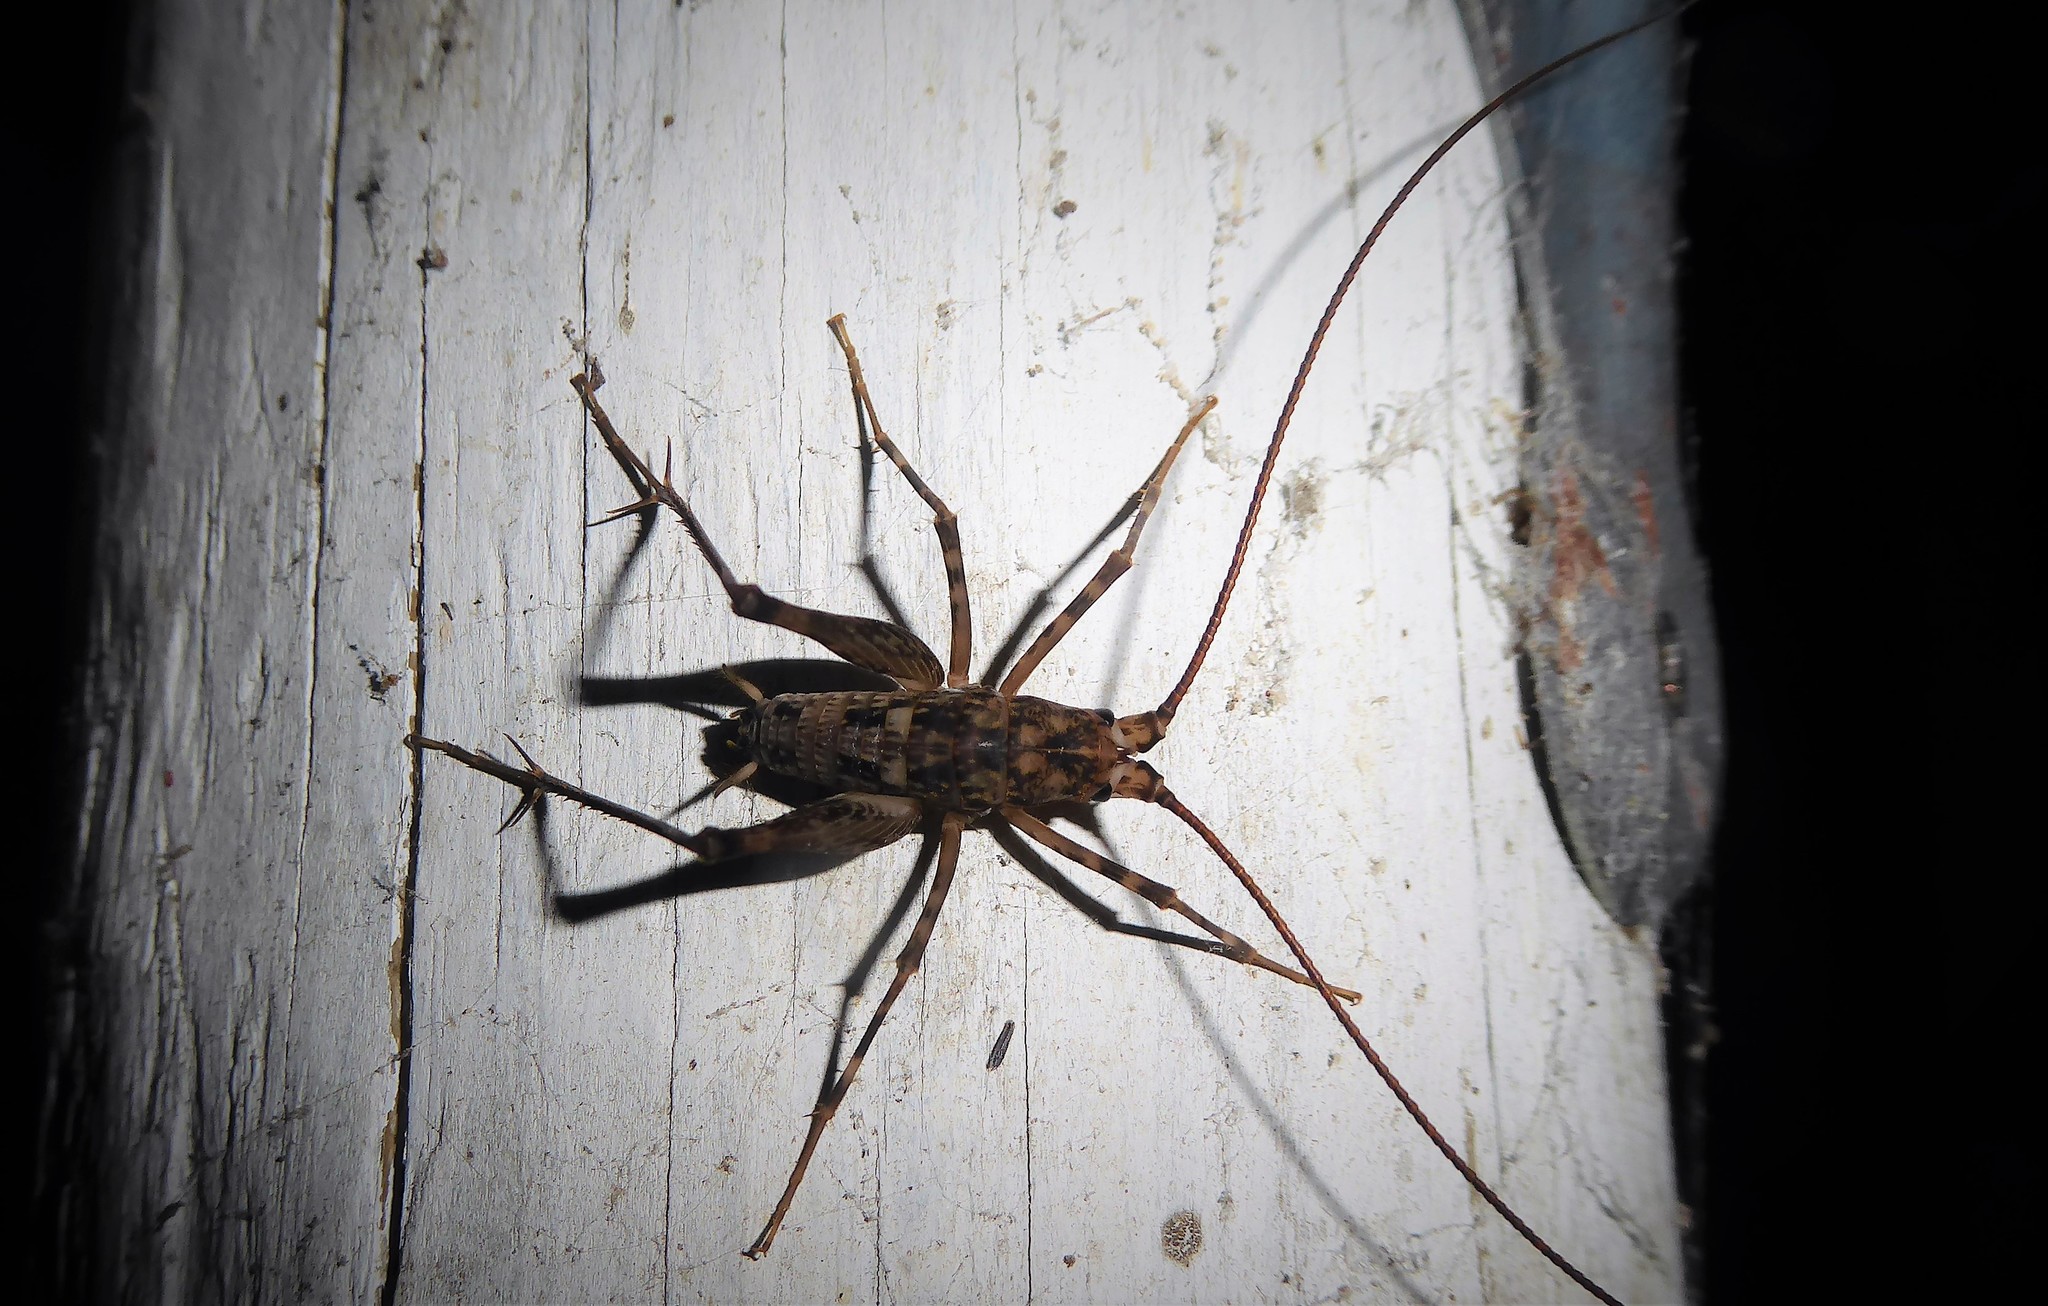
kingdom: Animalia
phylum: Arthropoda
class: Insecta
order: Orthoptera
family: Rhaphidophoridae
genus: Pleioplectron
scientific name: Pleioplectron simplex
